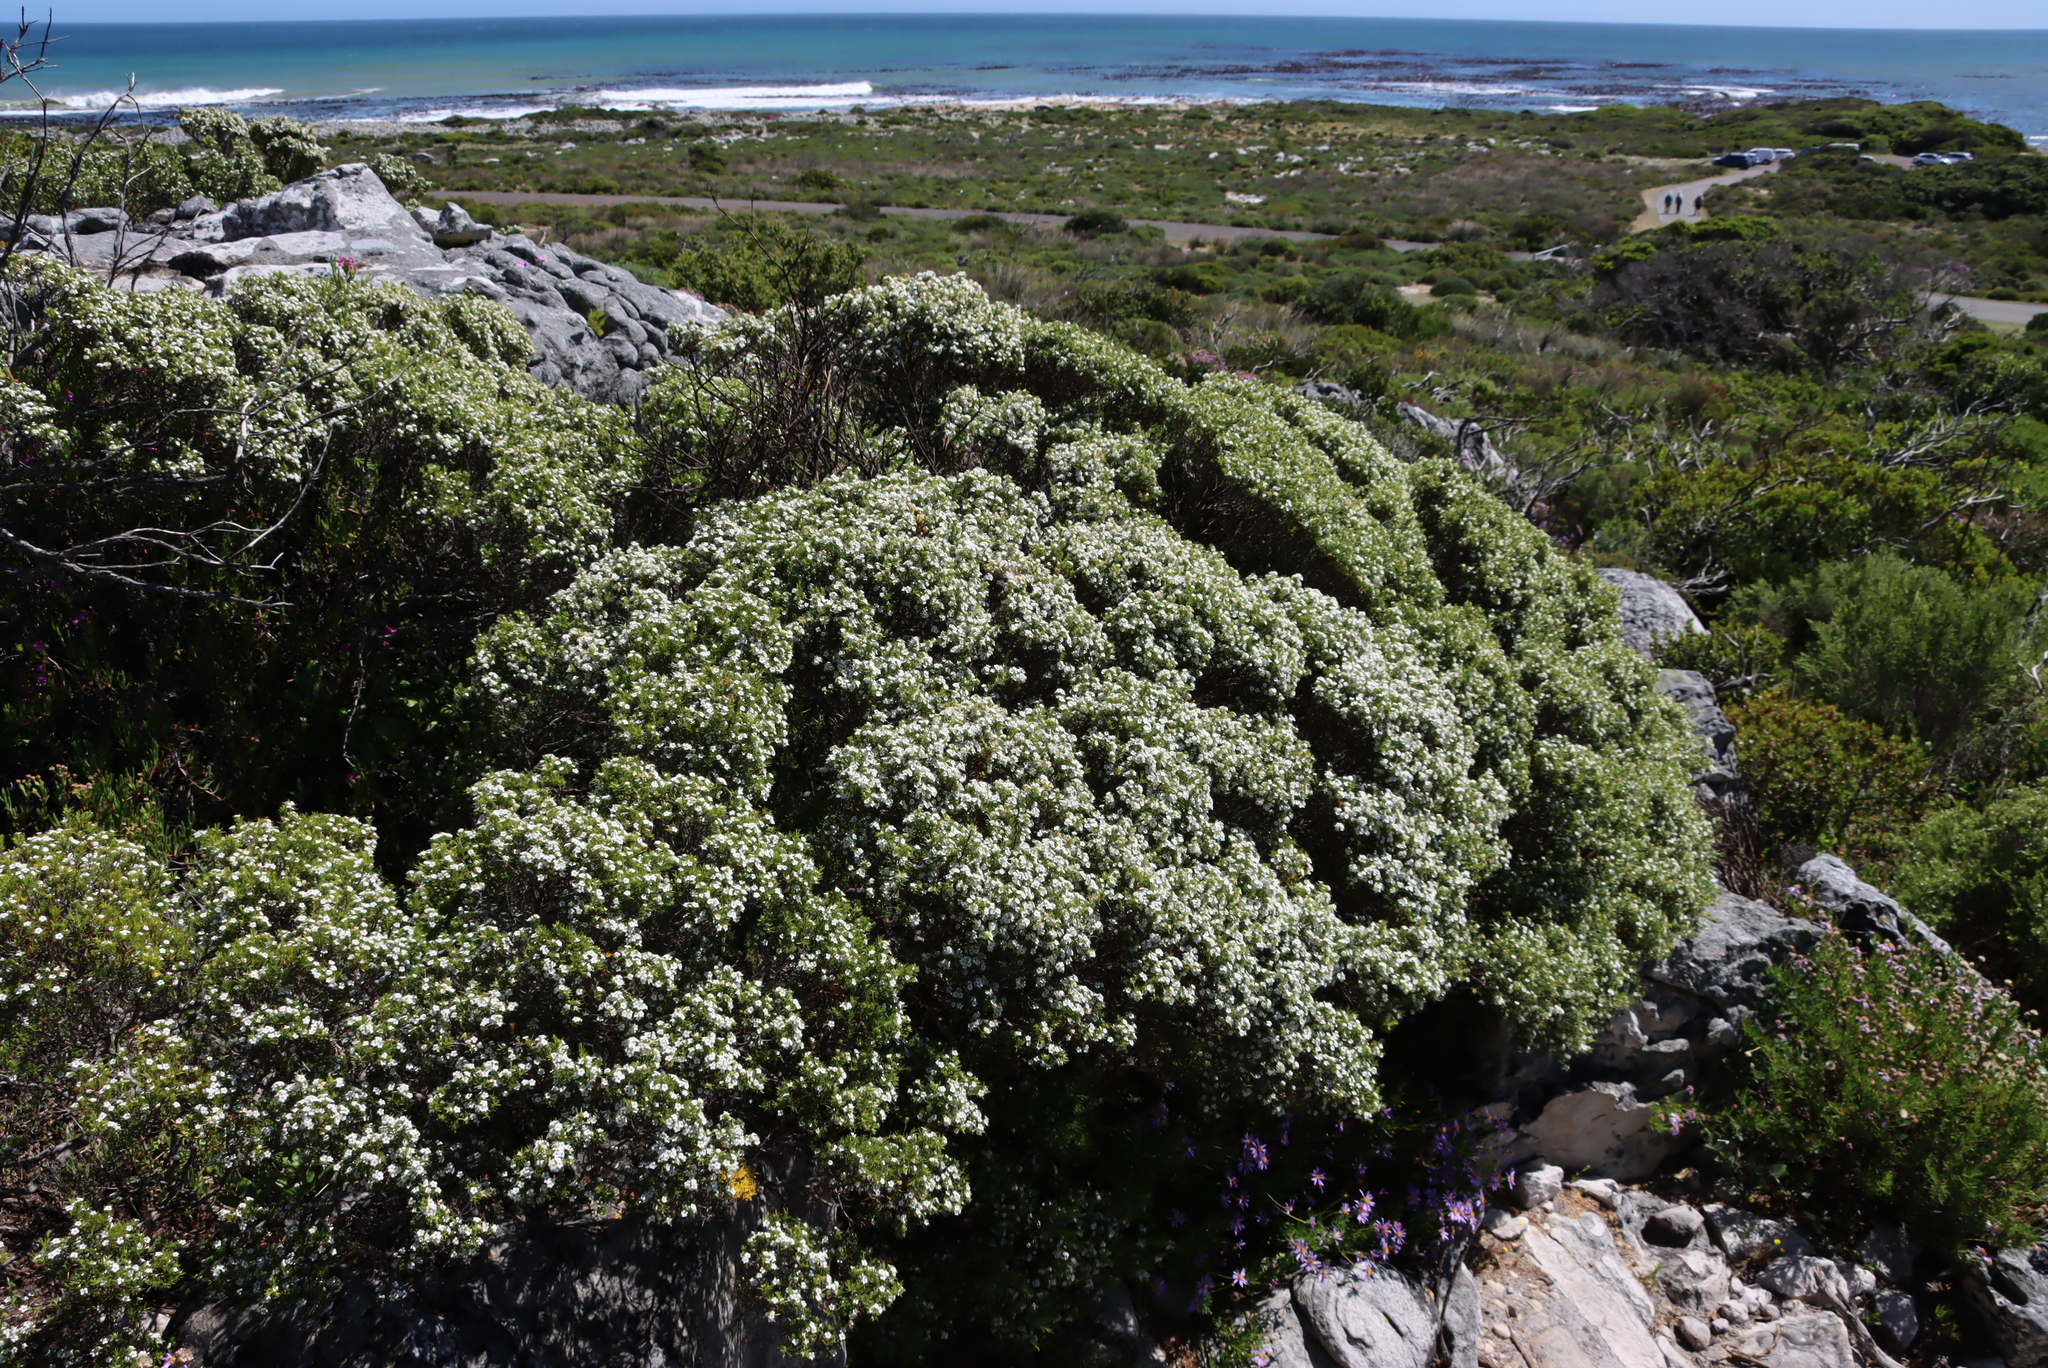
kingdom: Plantae
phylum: Tracheophyta
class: Magnoliopsida
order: Sapindales
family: Rutaceae
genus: Coleonema
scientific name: Coleonema album
